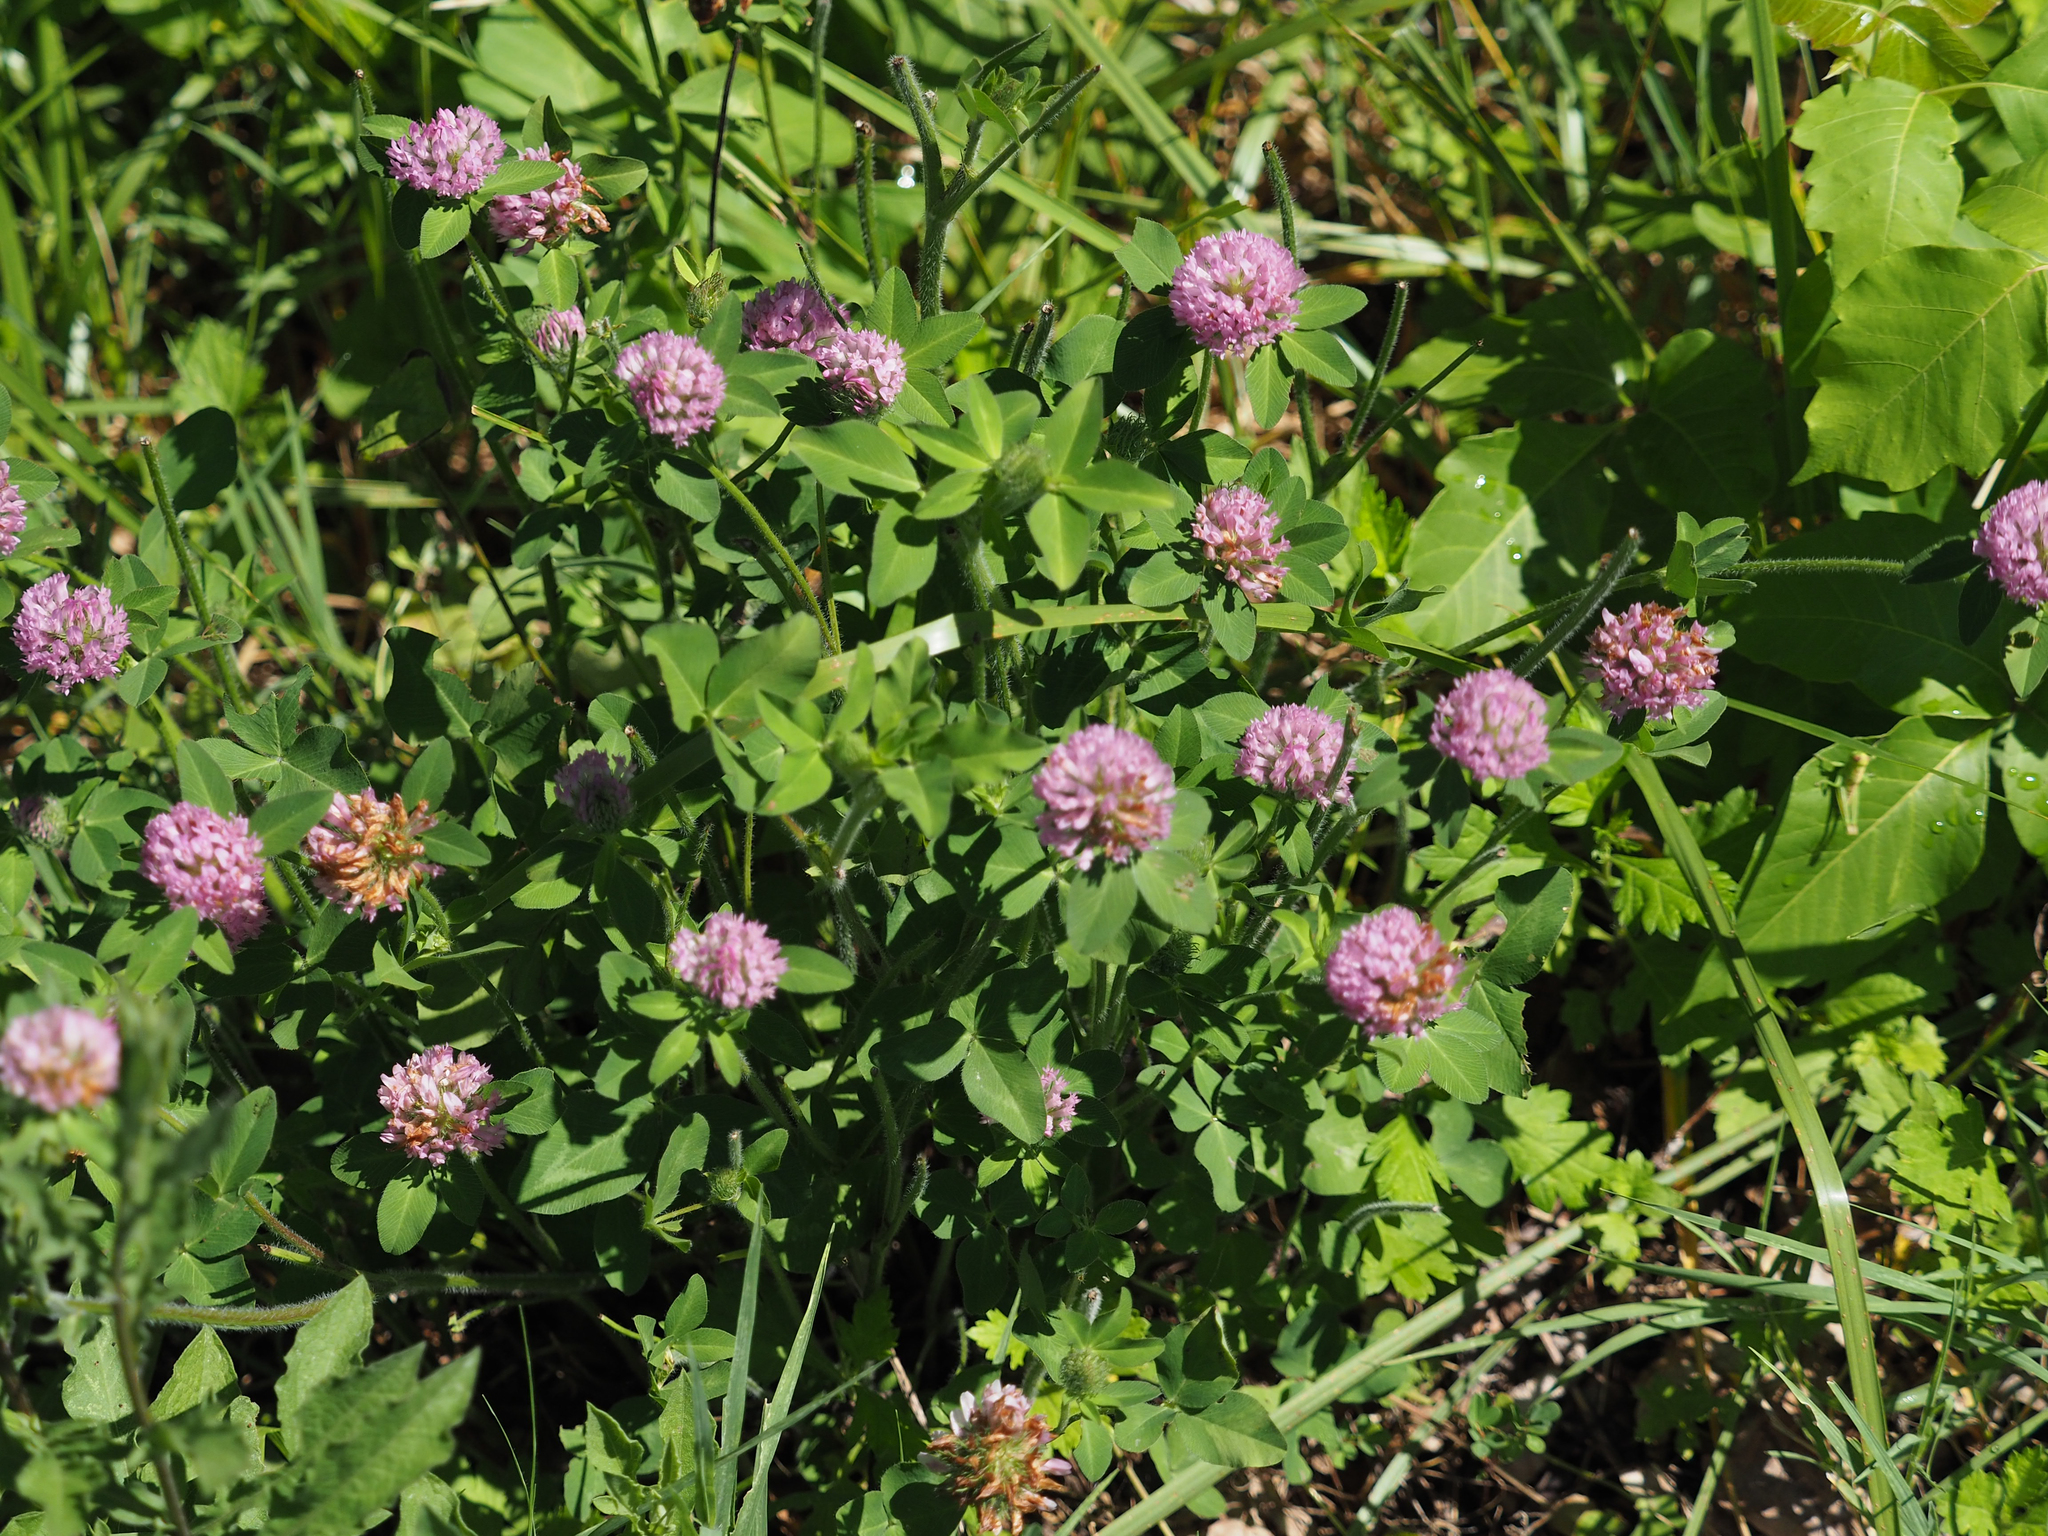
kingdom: Plantae
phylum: Tracheophyta
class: Magnoliopsida
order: Fabales
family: Fabaceae
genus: Trifolium
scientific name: Trifolium pratense
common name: Red clover
